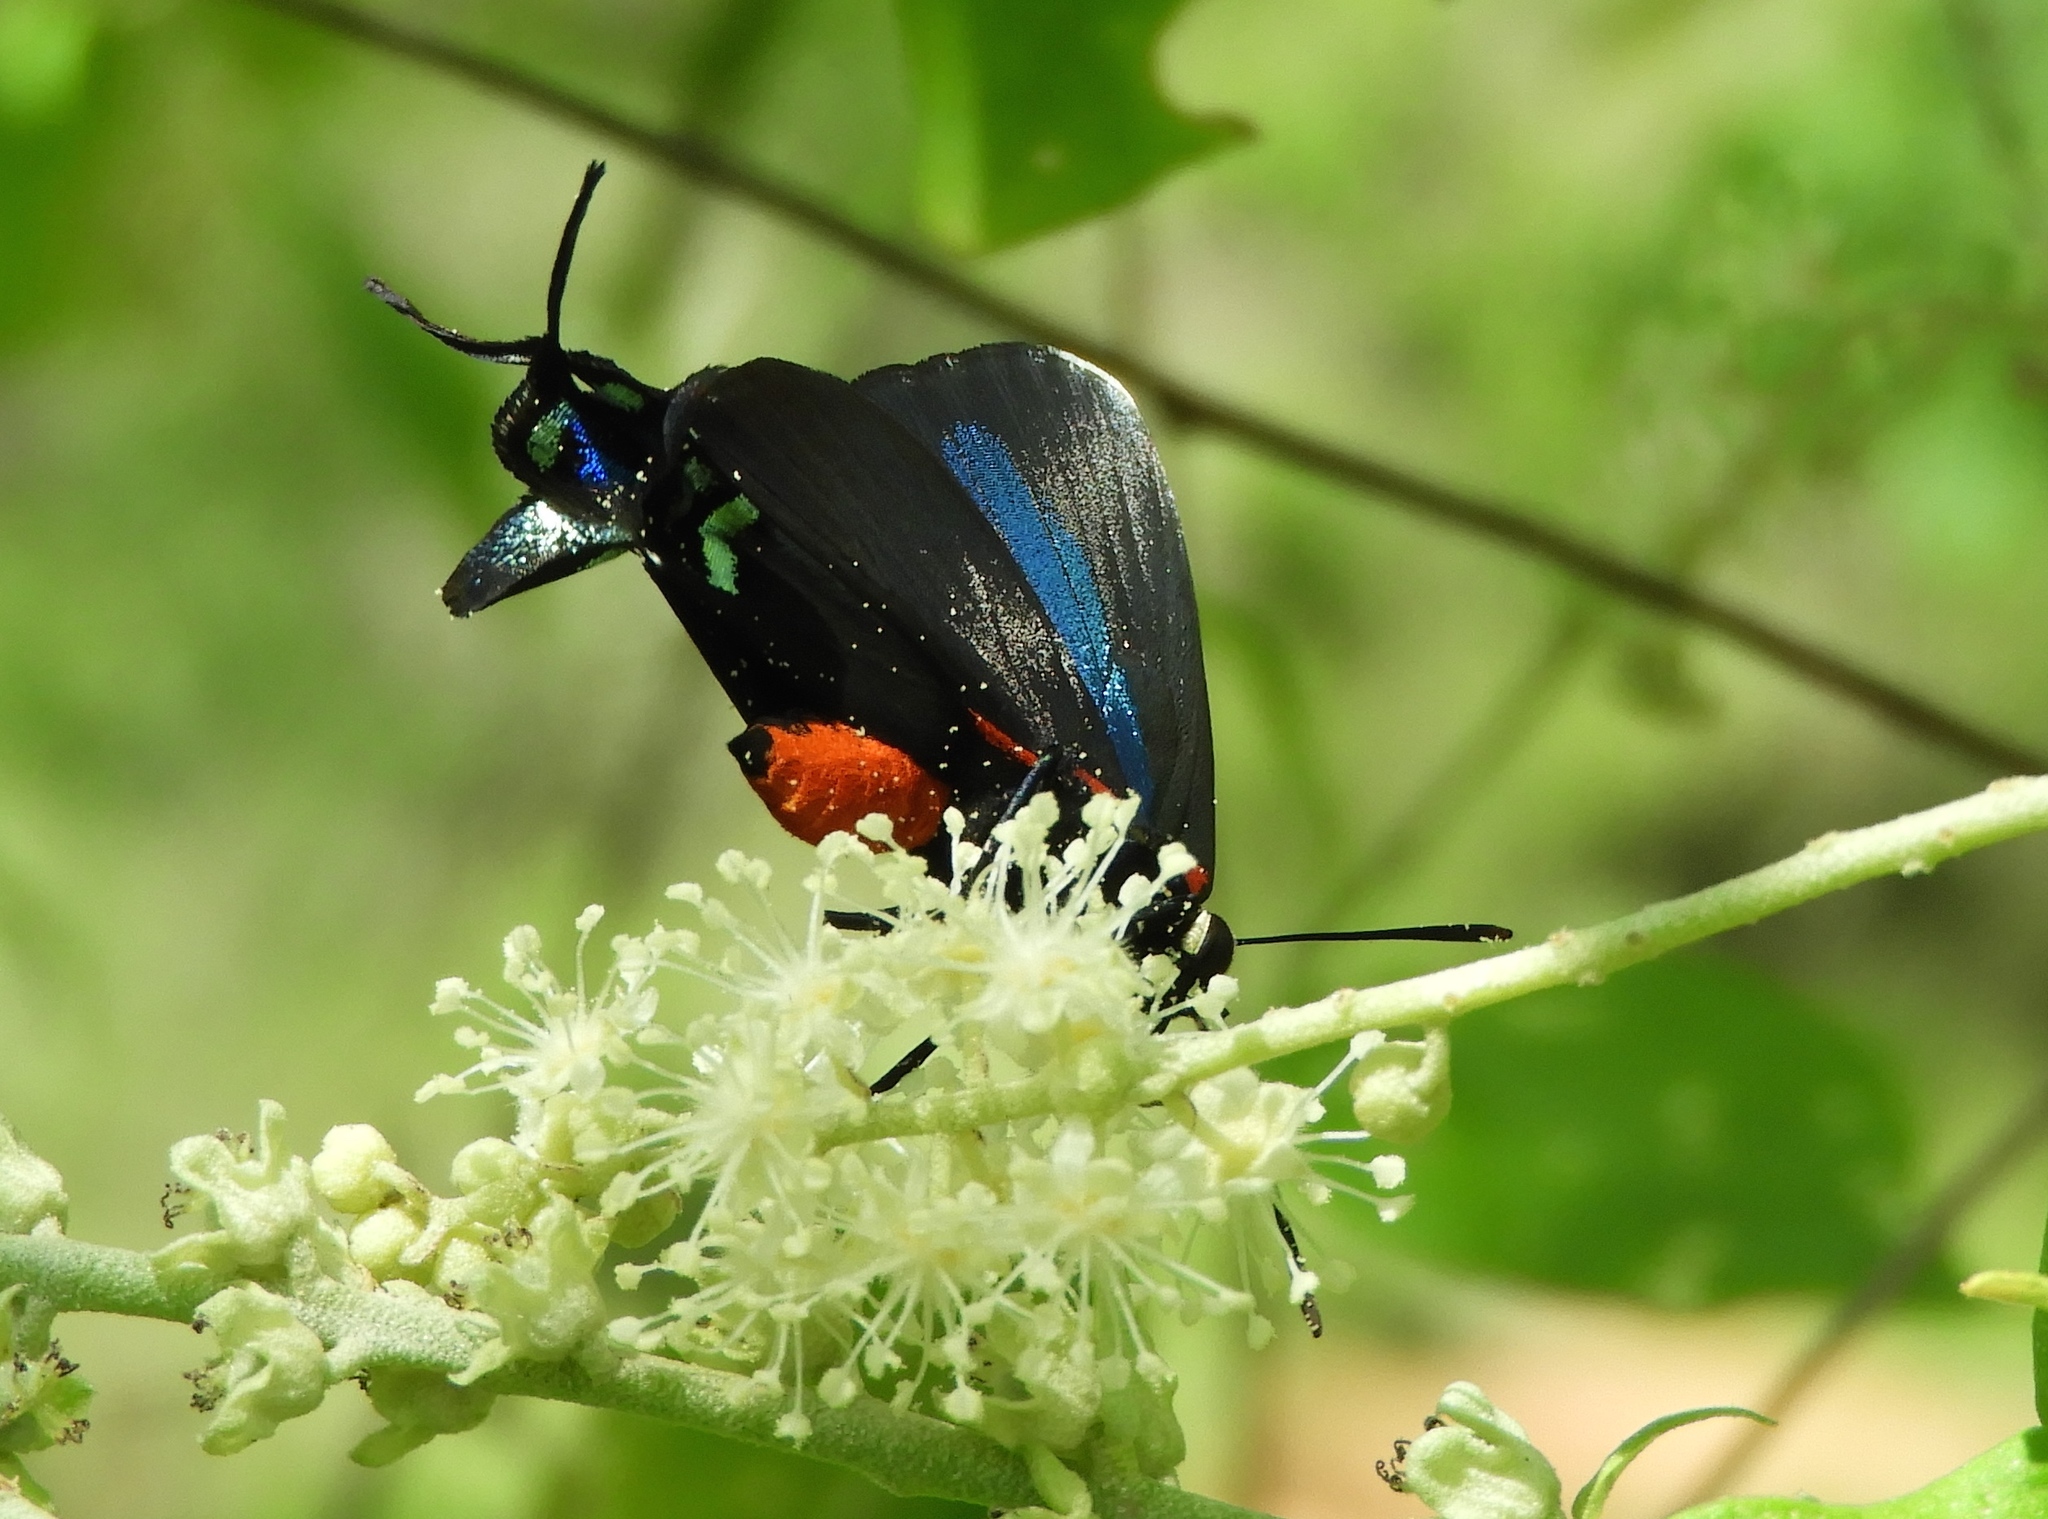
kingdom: Animalia
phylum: Arthropoda
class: Insecta
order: Lepidoptera
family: Lycaenidae
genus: Atlides
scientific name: Atlides
